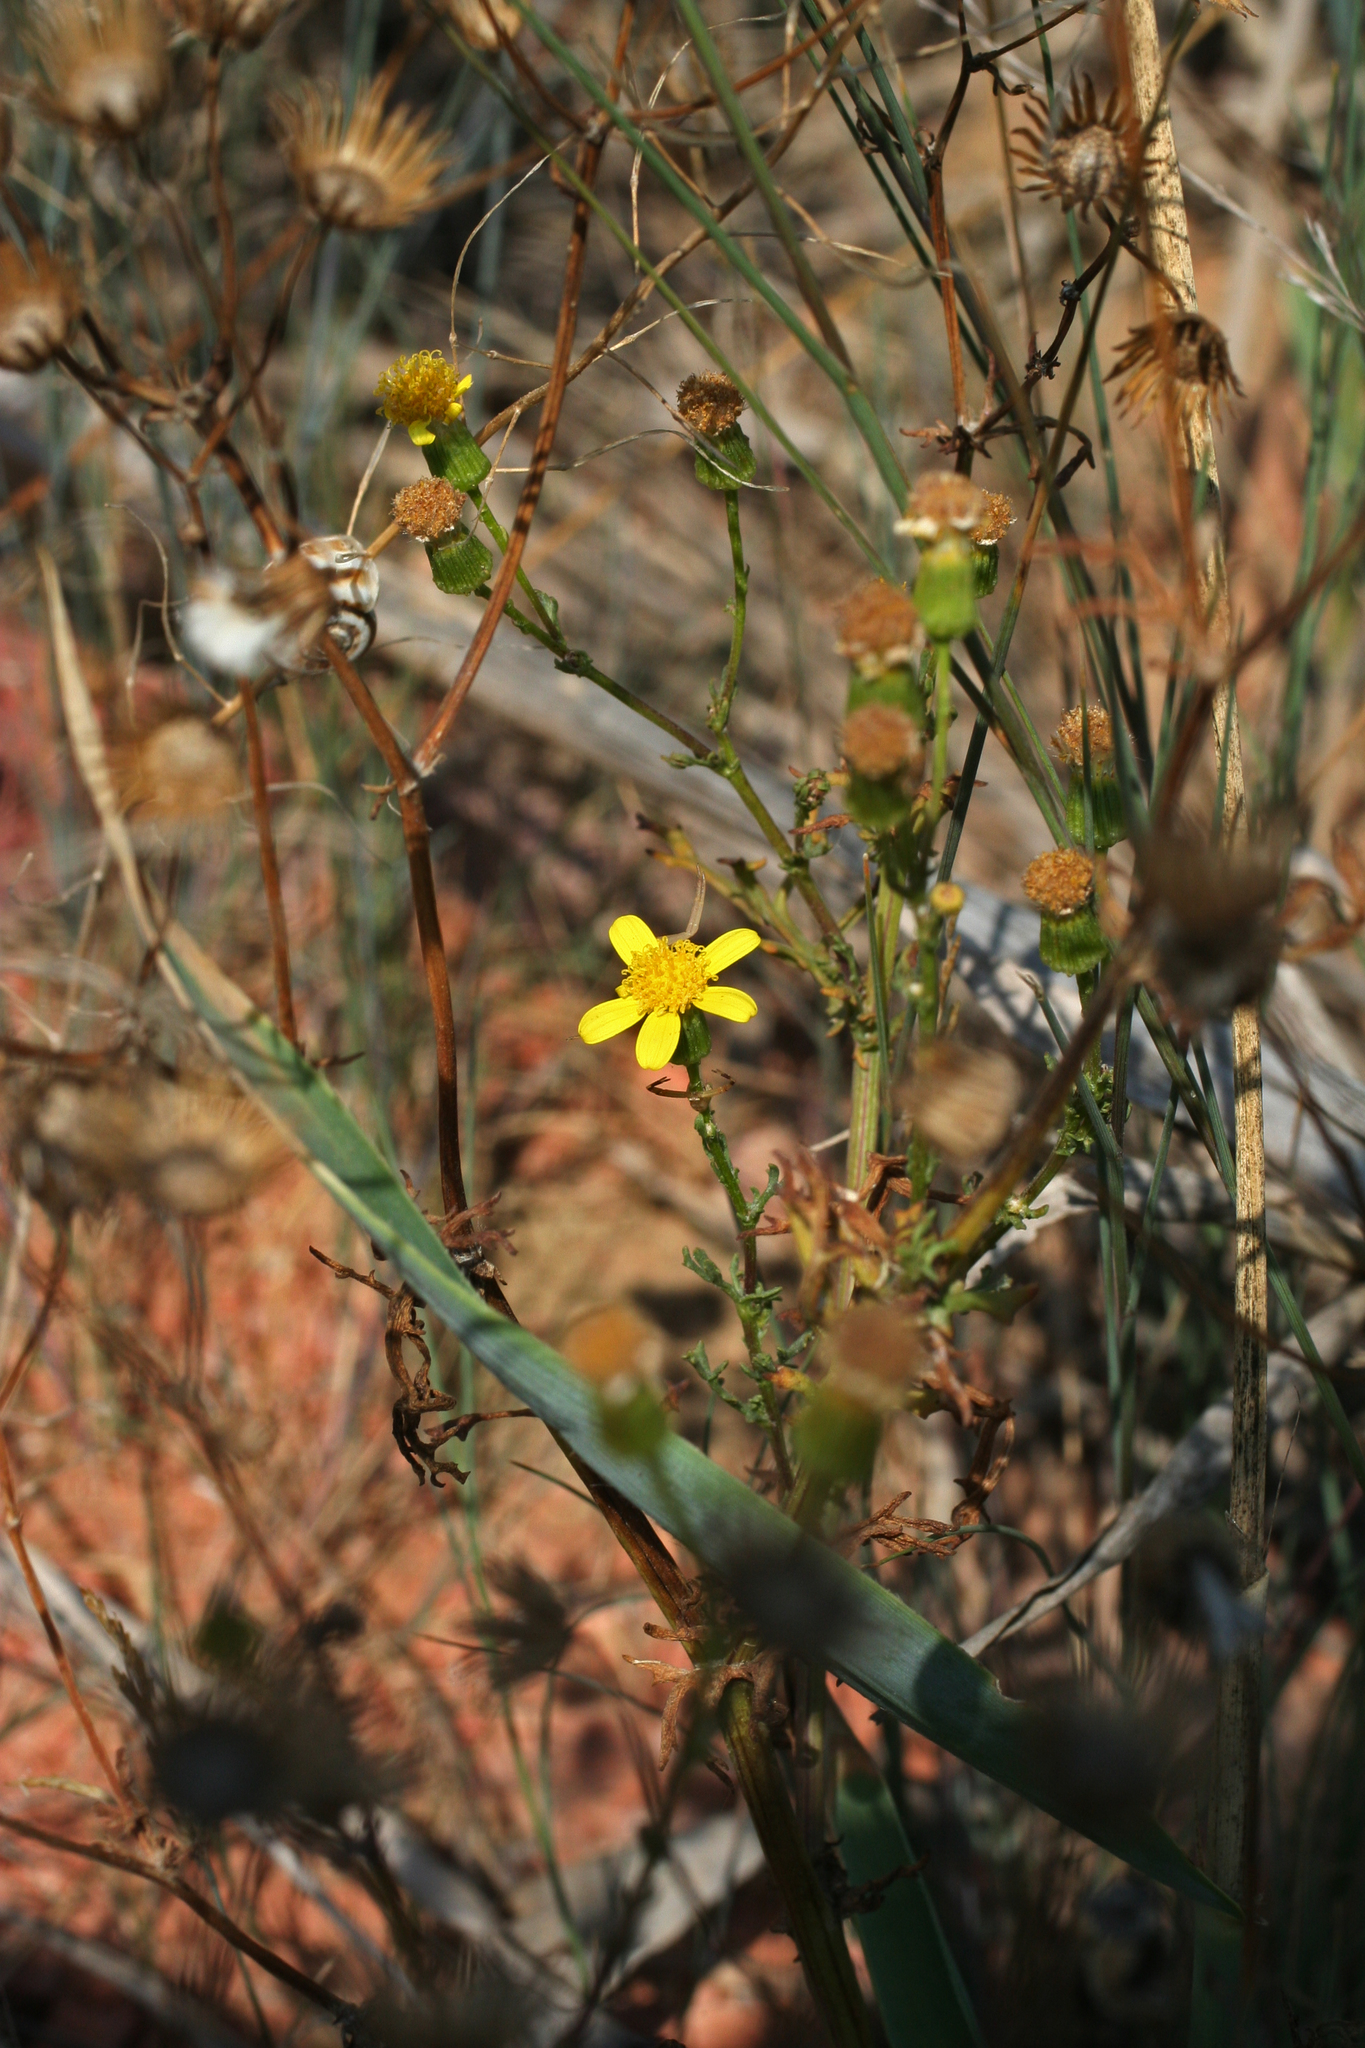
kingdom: Plantae
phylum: Tracheophyta
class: Magnoliopsida
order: Asterales
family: Asteraceae
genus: Senecio
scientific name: Senecio vernalis
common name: Eastern groundsel
